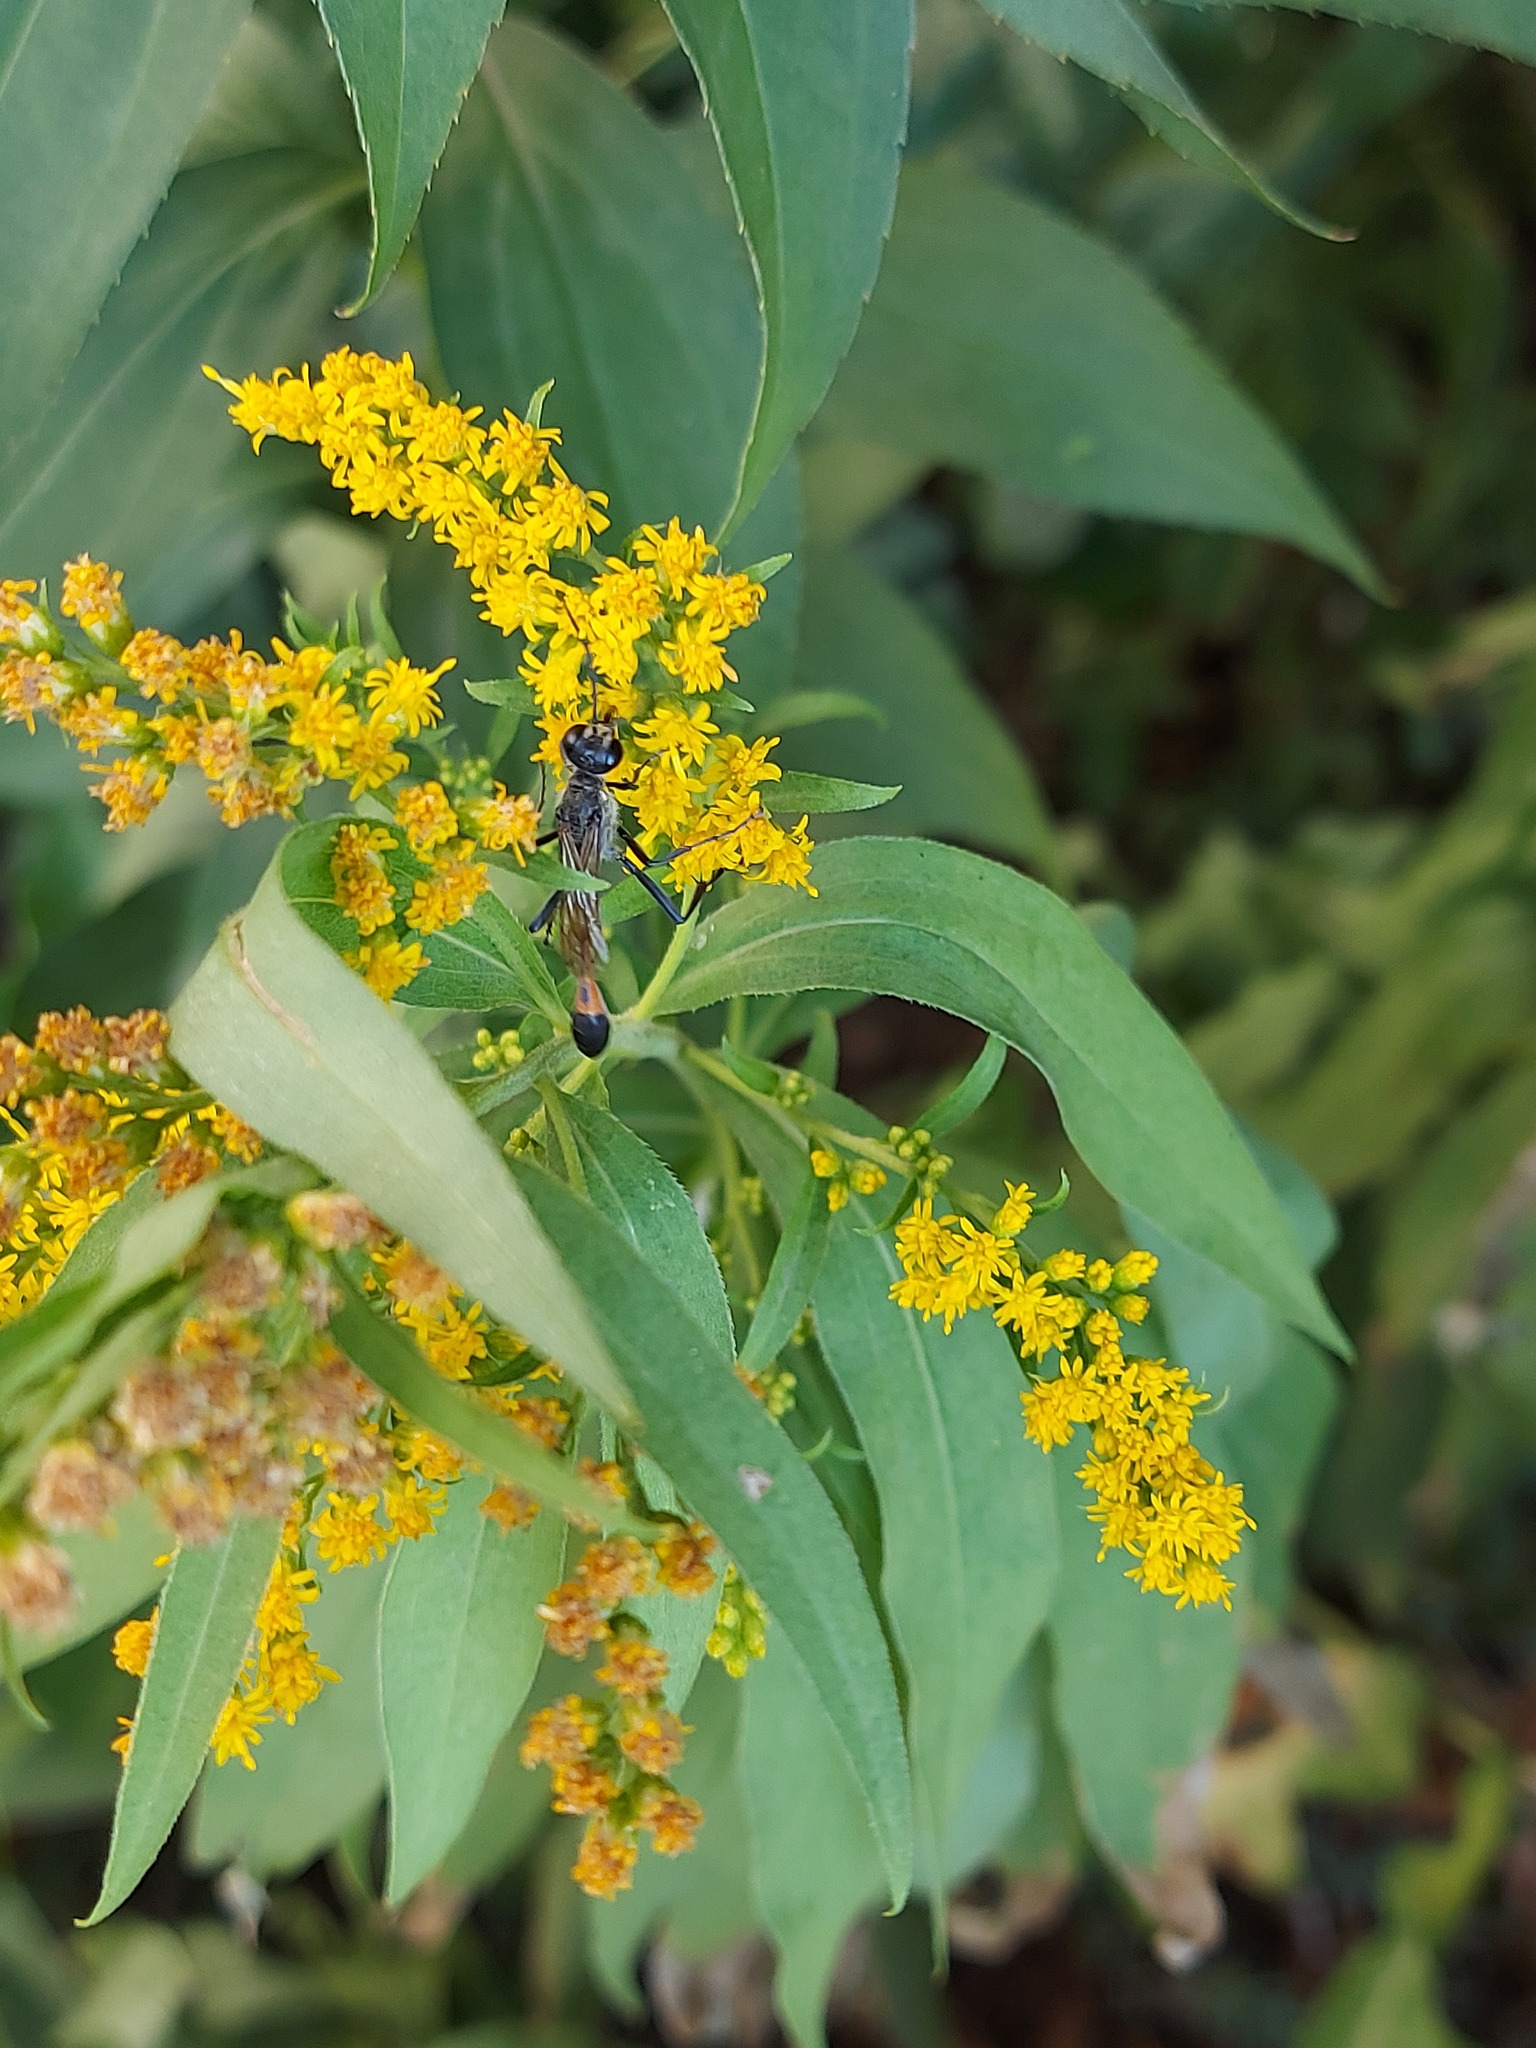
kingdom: Plantae
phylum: Tracheophyta
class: Magnoliopsida
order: Asterales
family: Asteraceae
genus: Solidago
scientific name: Solidago canadensis
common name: Canada goldenrod
